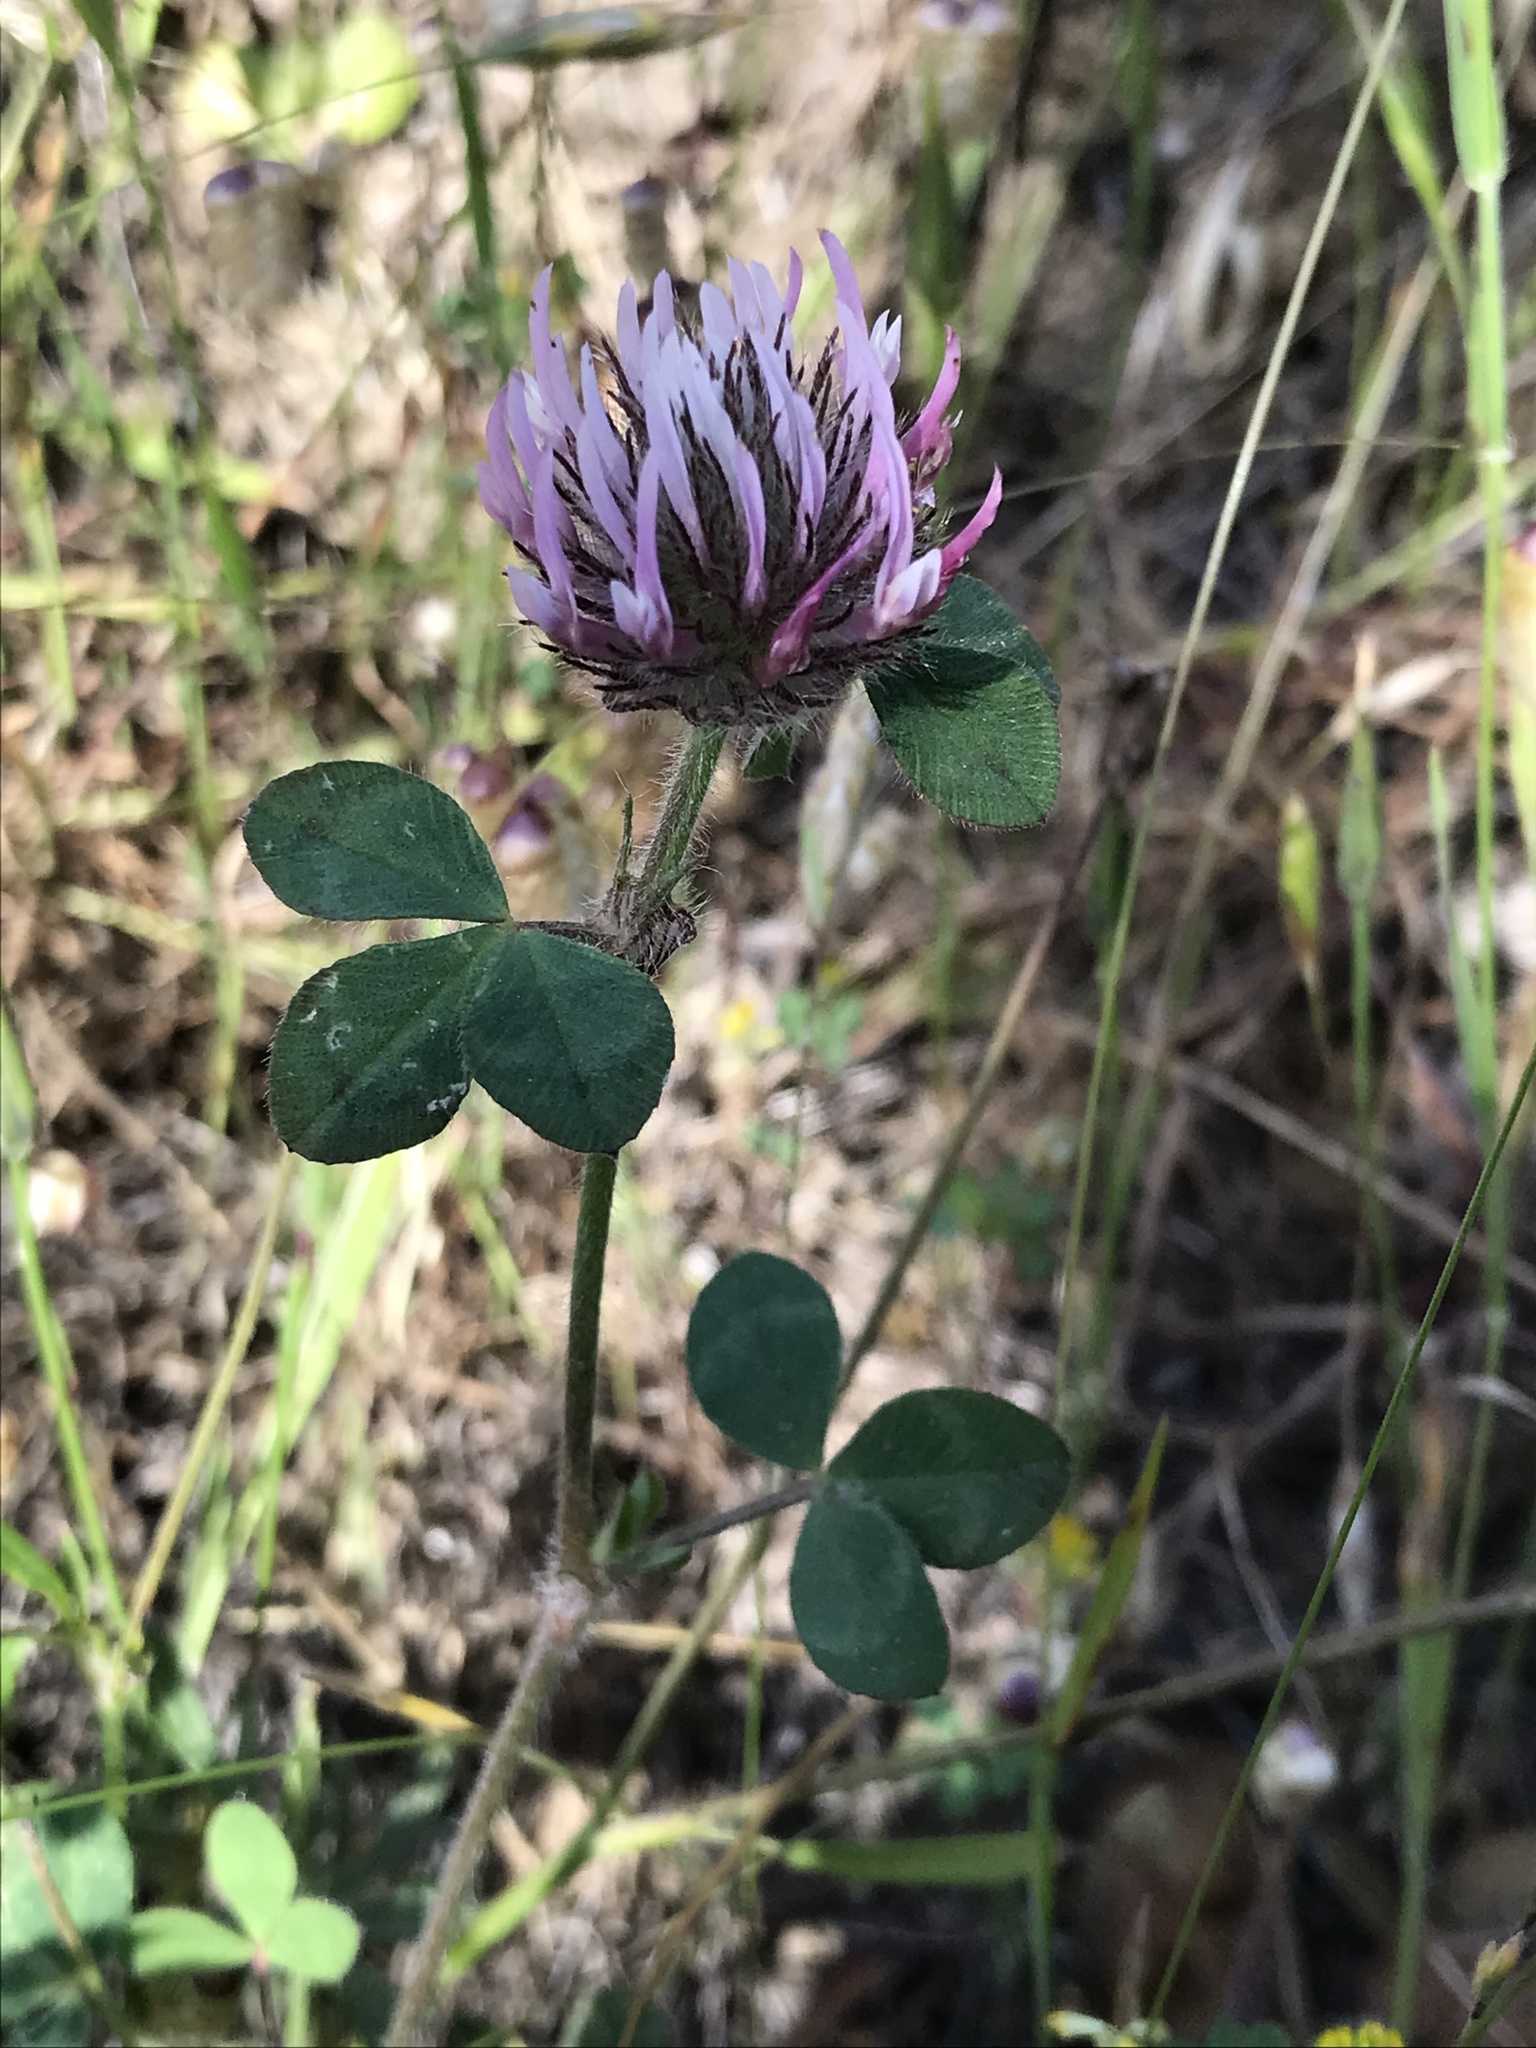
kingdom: Plantae
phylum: Tracheophyta
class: Magnoliopsida
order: Fabales
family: Fabaceae
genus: Trifolium
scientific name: Trifolium hirtum
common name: Rose clover
